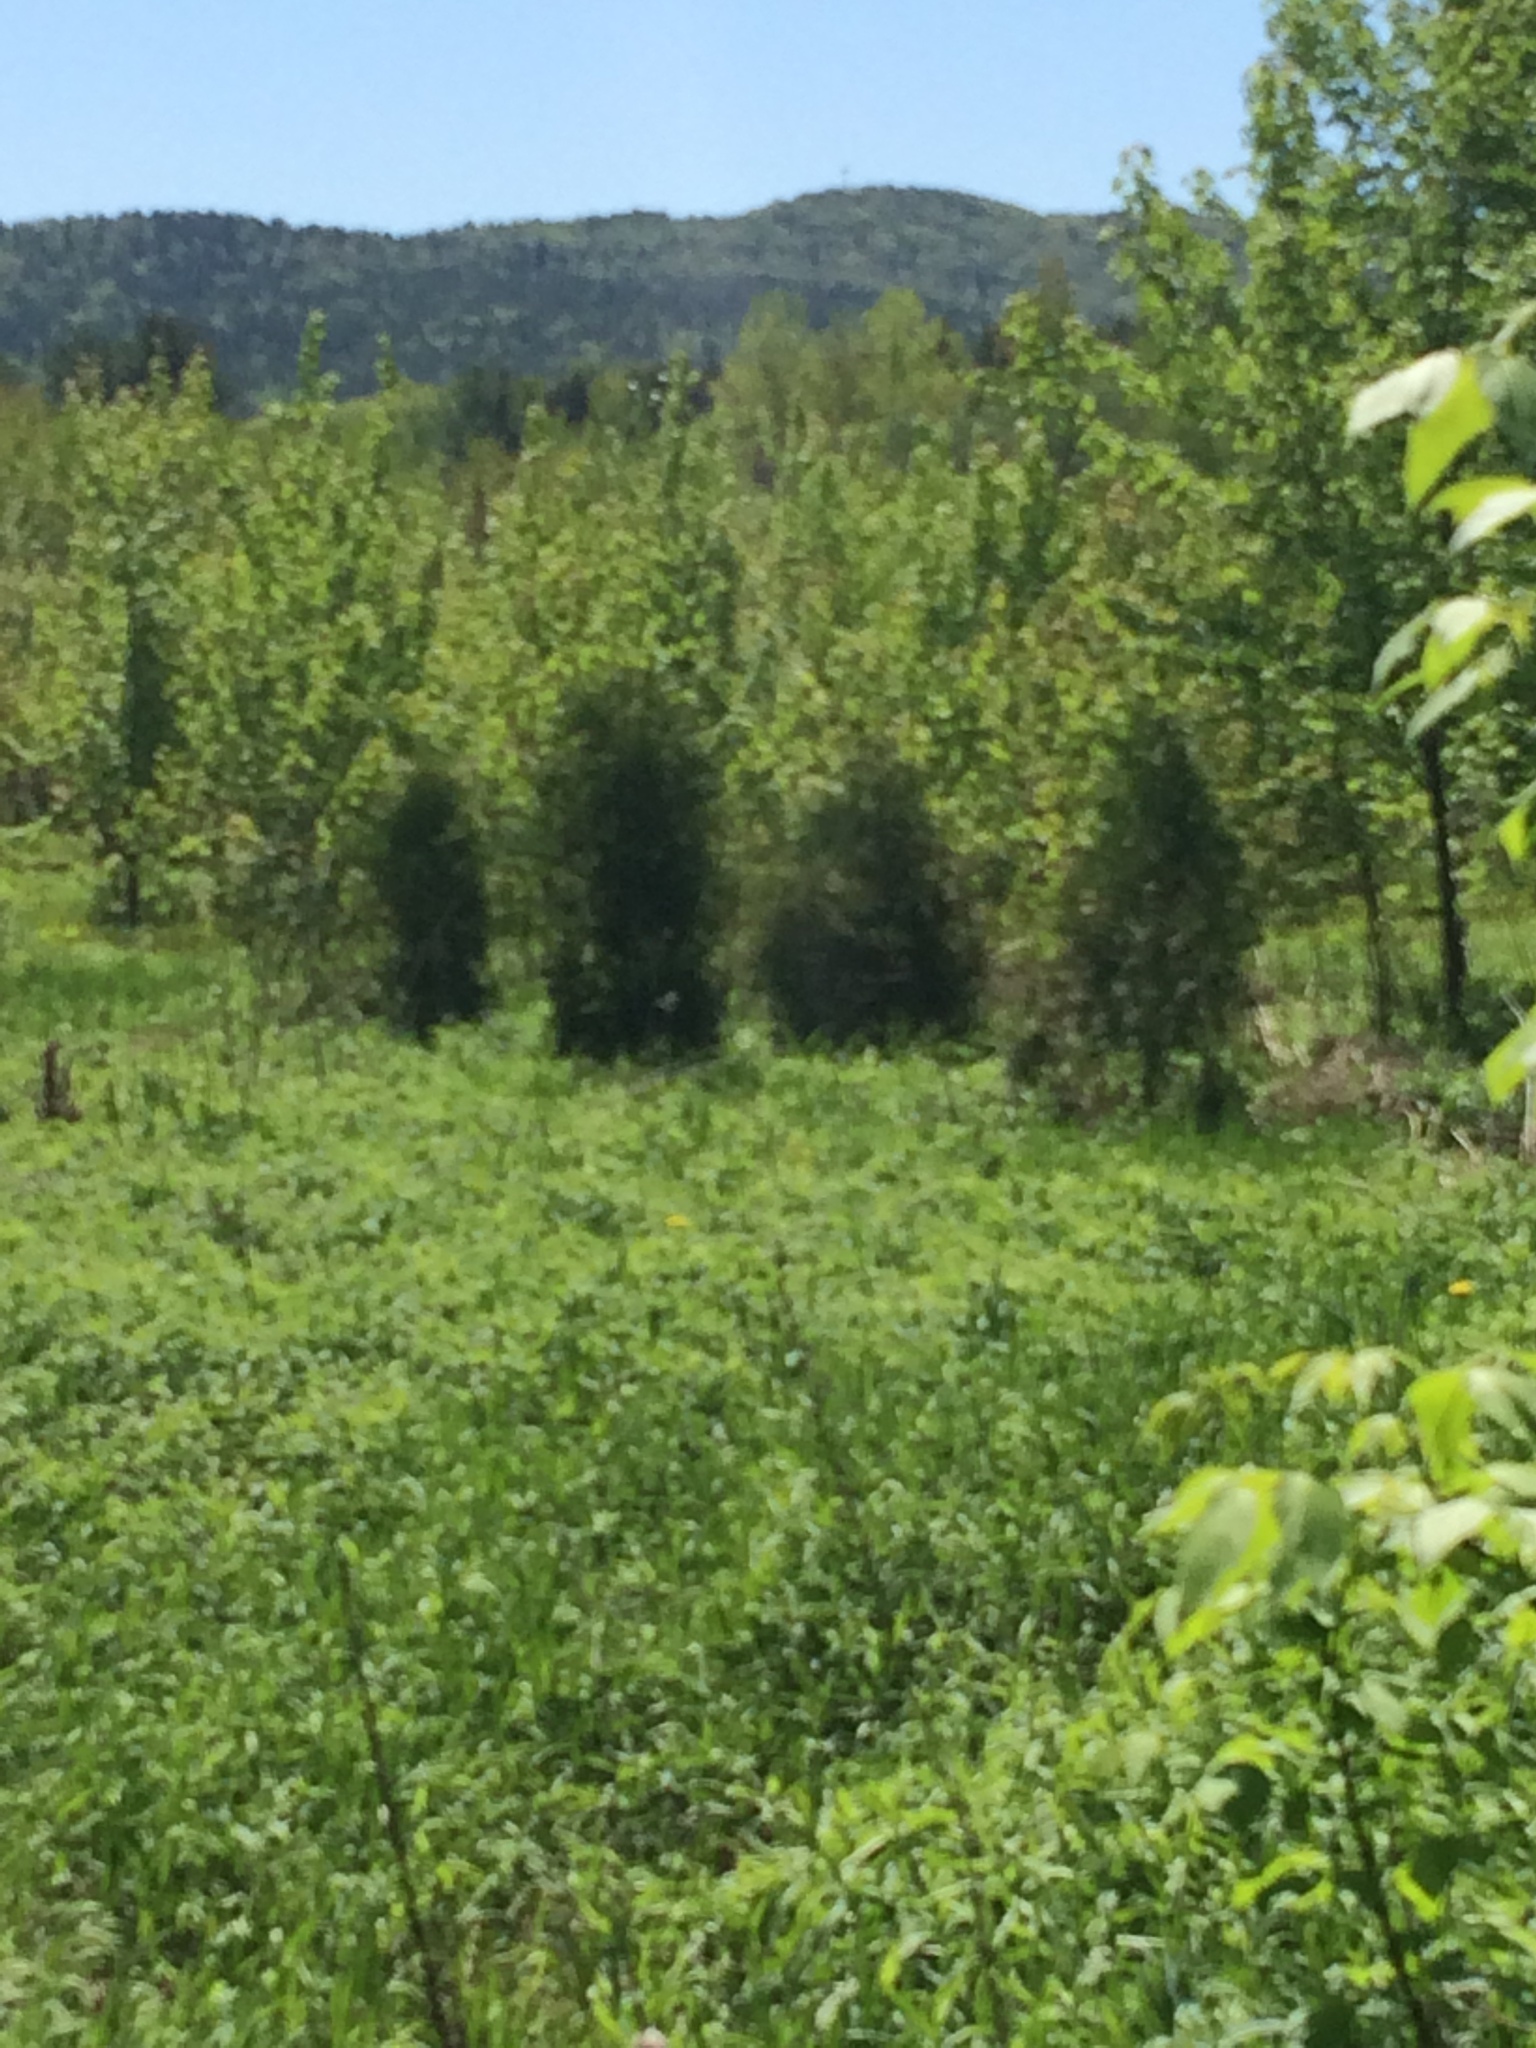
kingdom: Plantae
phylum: Tracheophyta
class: Pinopsida
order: Pinales
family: Cupressaceae
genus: Juniperus
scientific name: Juniperus virginiana
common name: Red juniper
